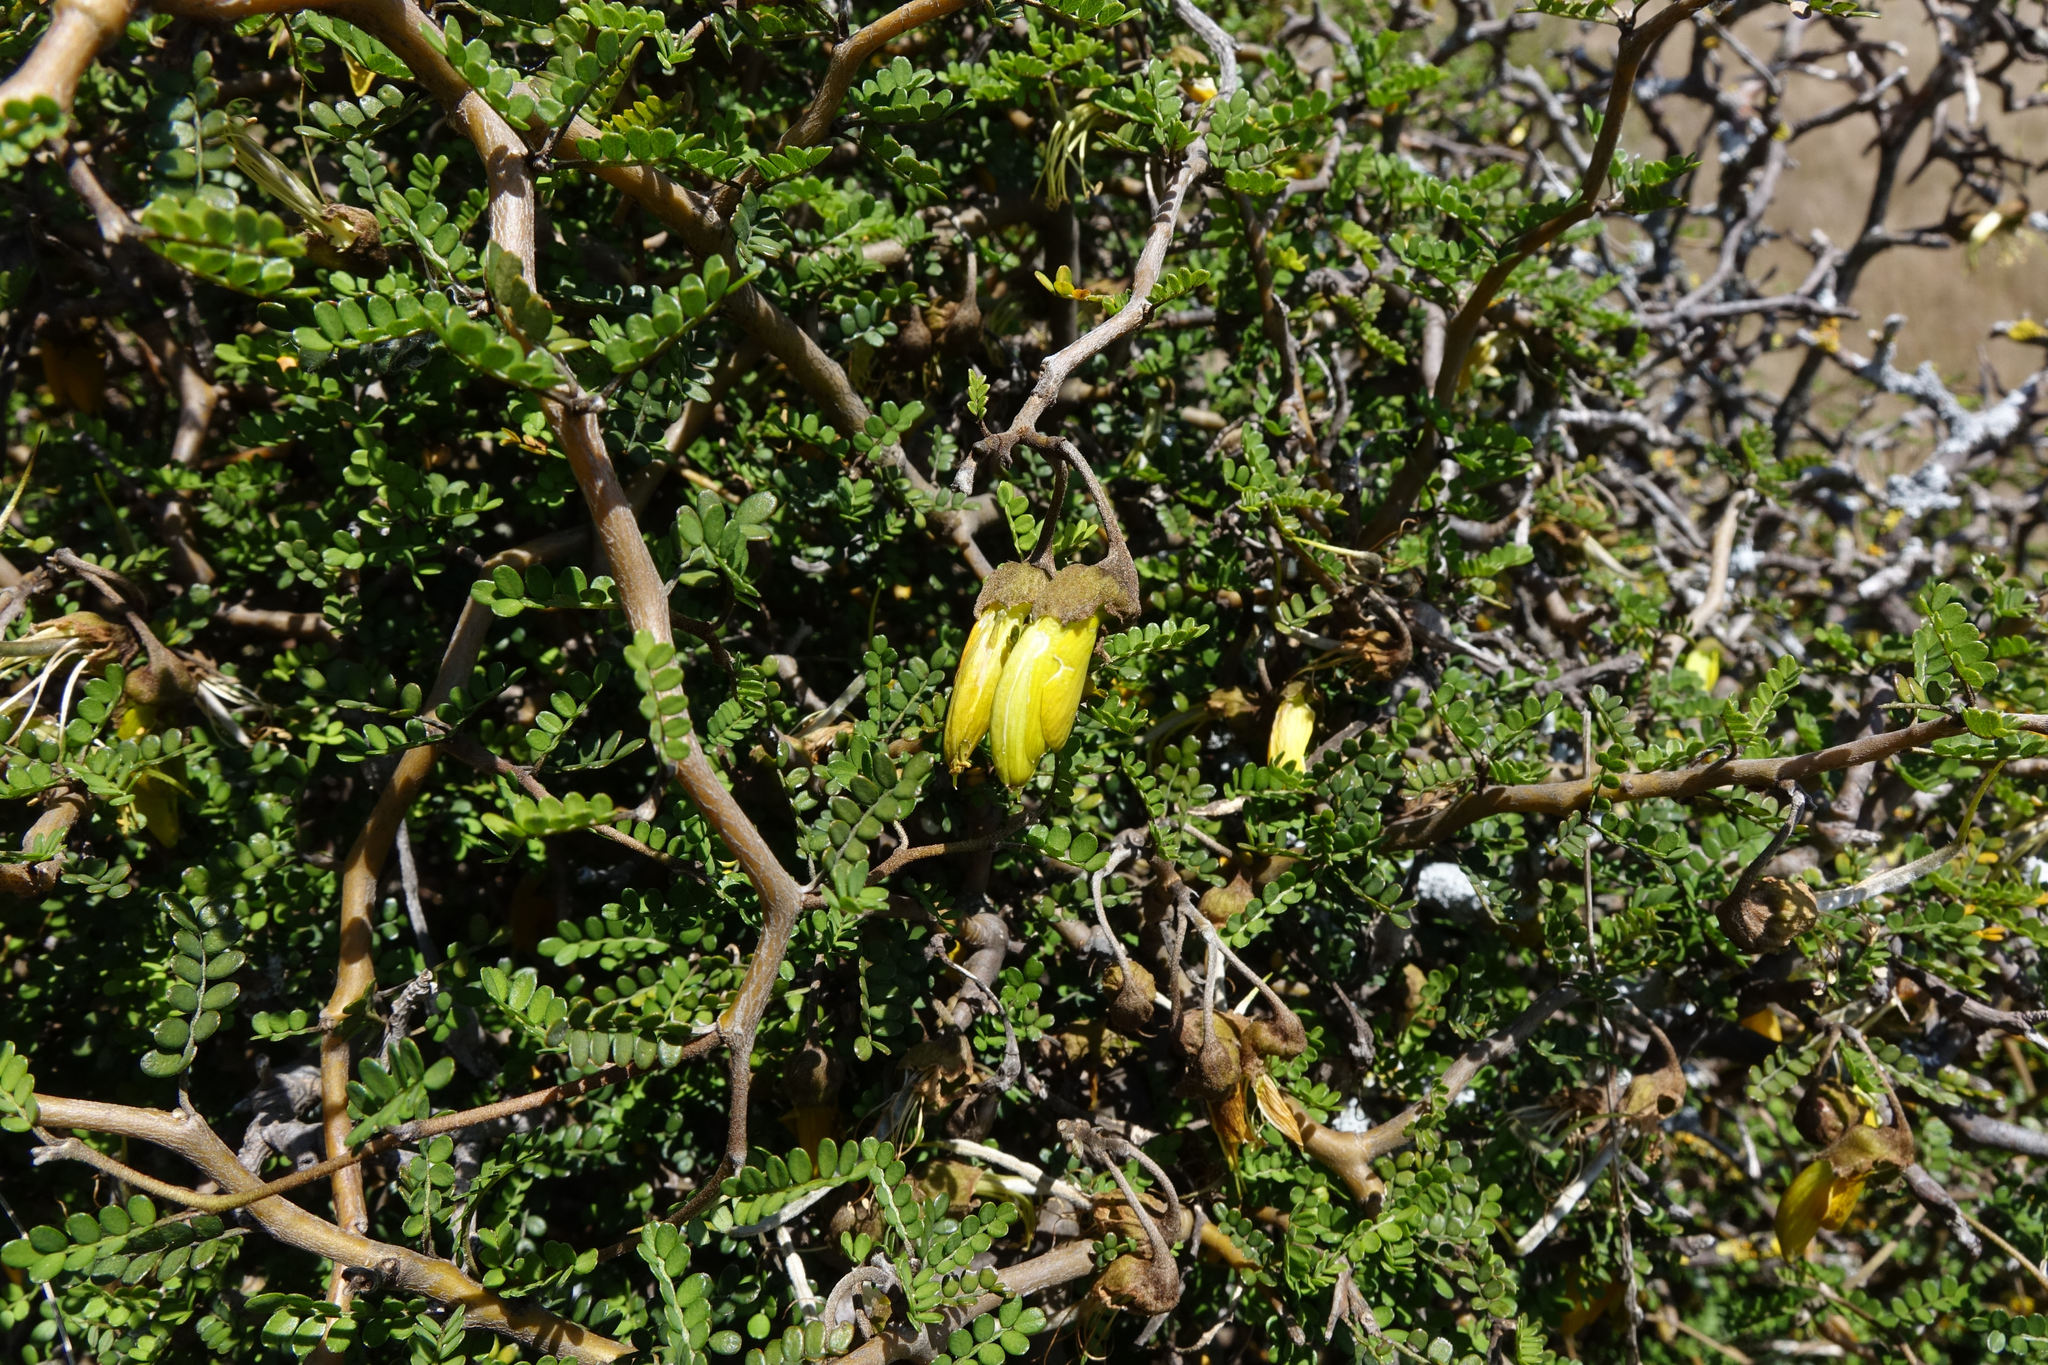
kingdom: Plantae
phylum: Tracheophyta
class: Magnoliopsida
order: Fabales
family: Fabaceae
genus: Sophora
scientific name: Sophora prostrata
